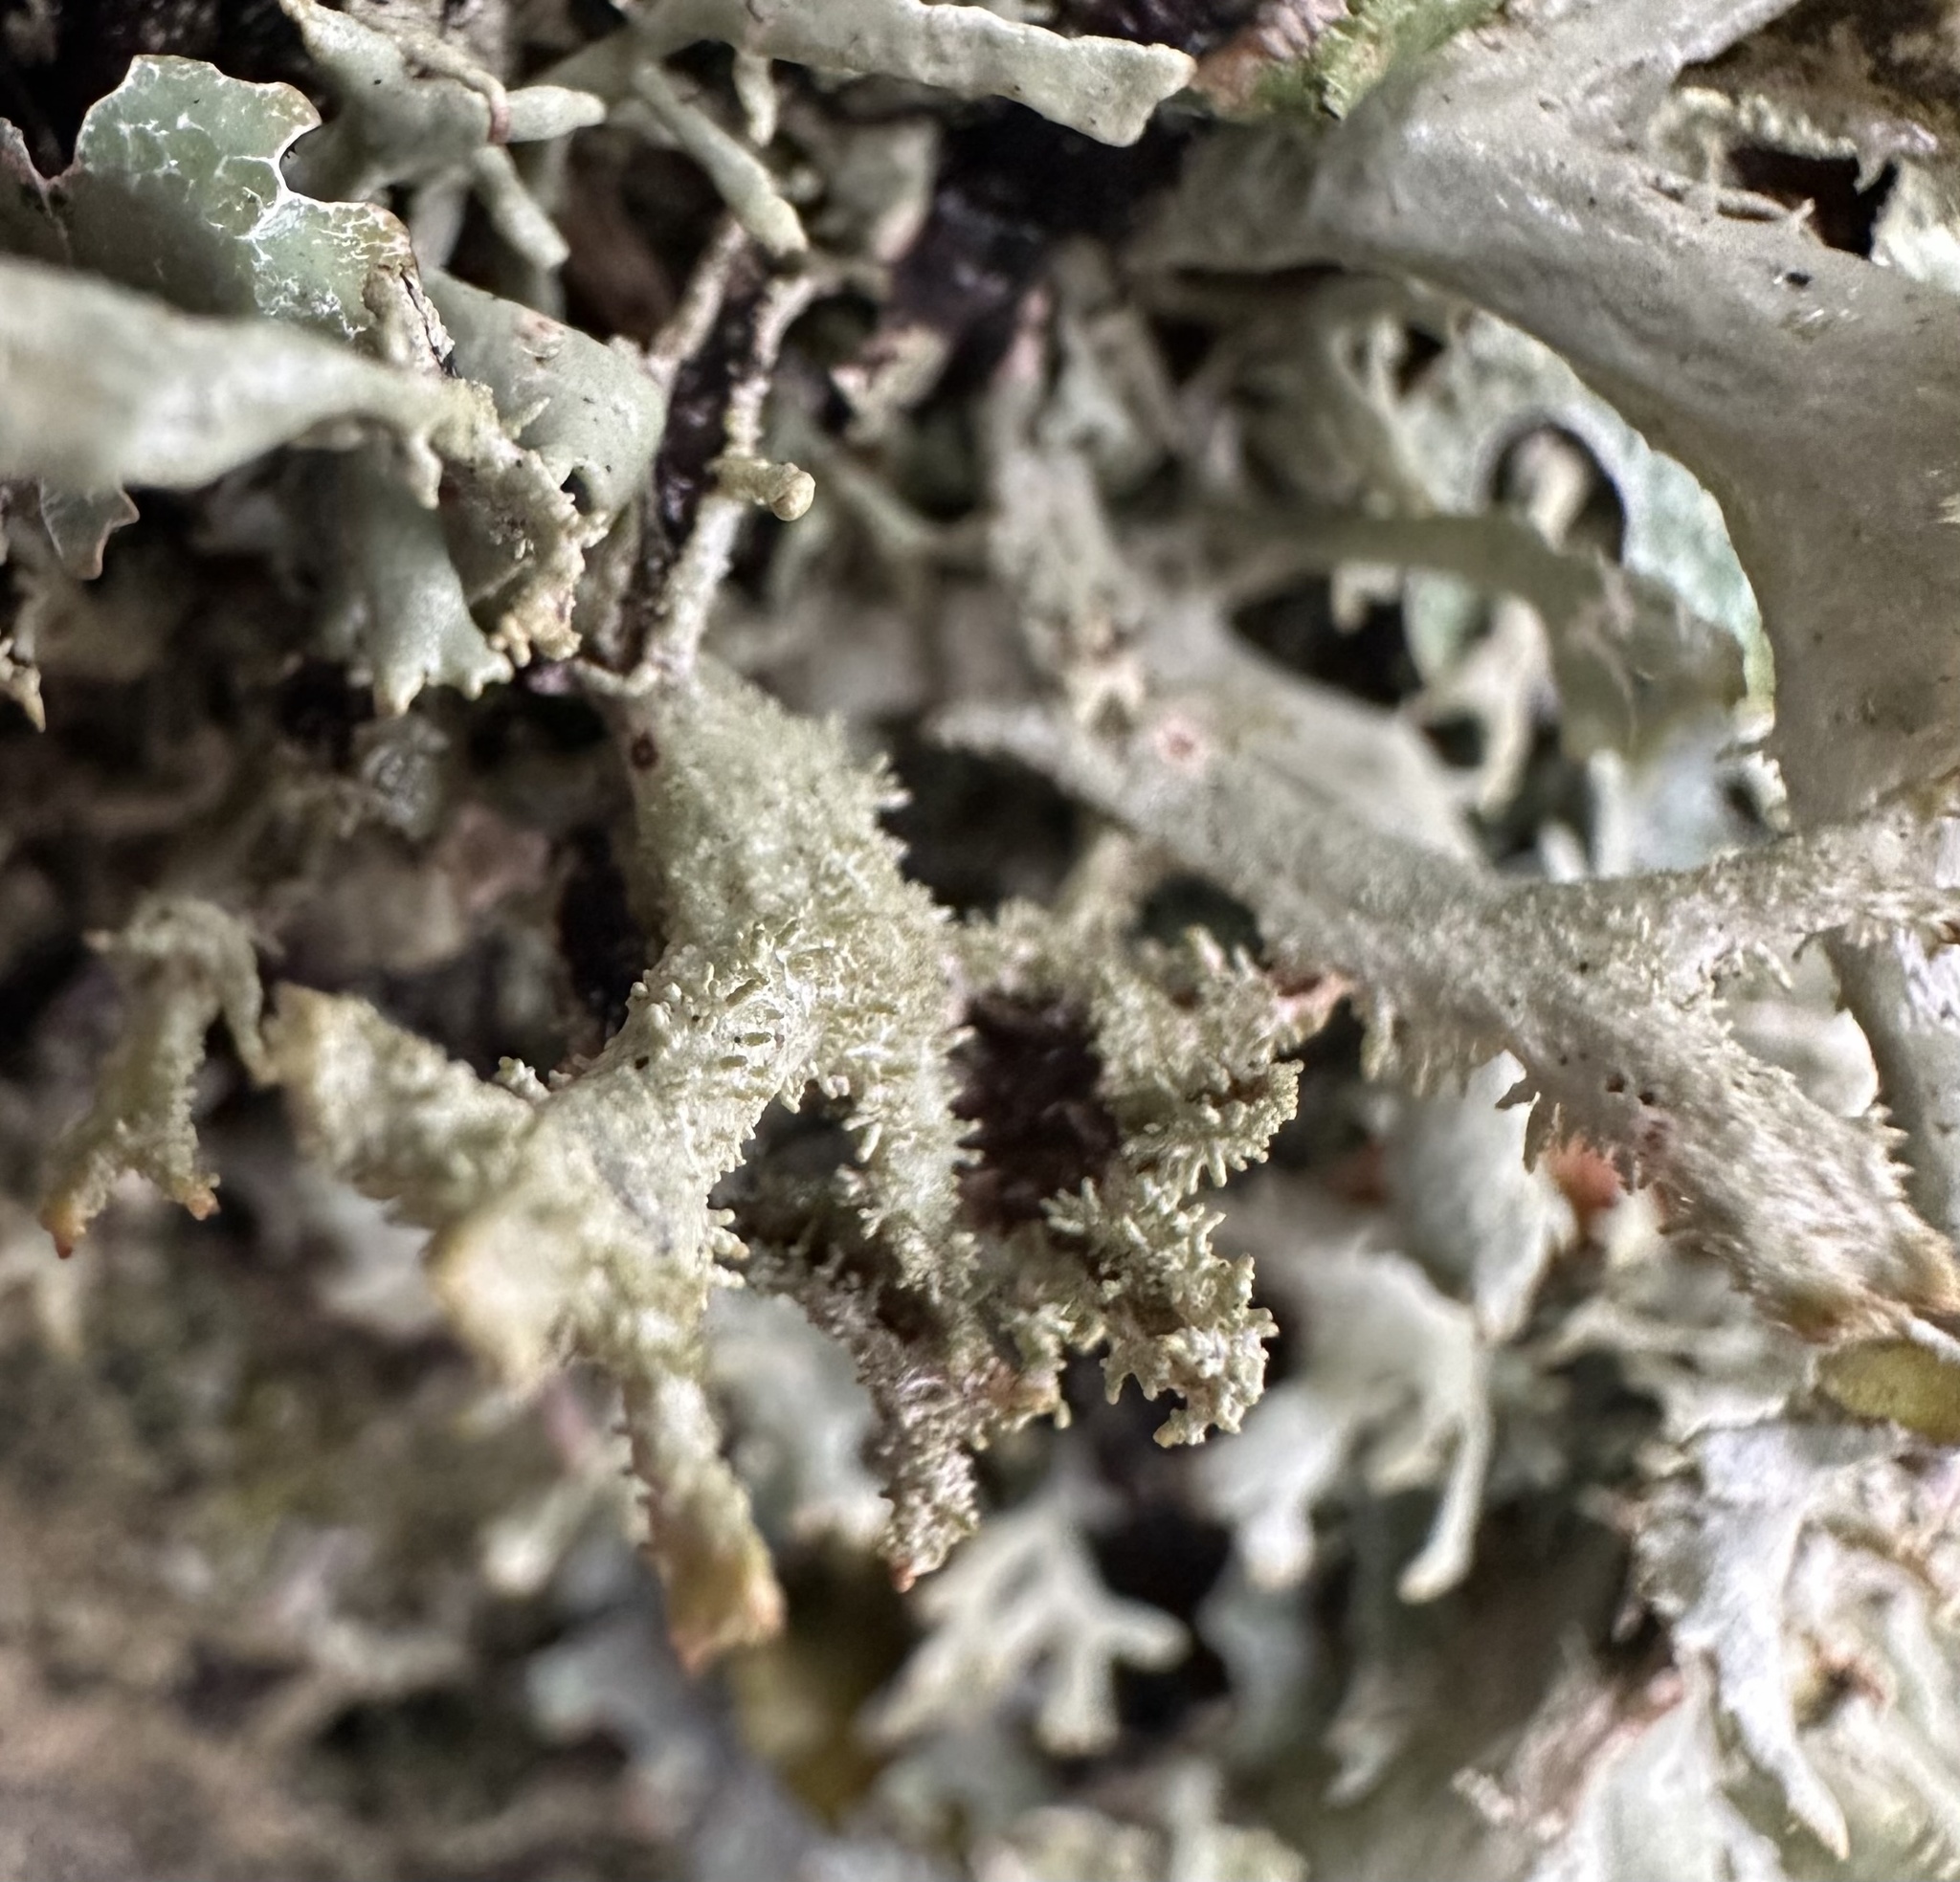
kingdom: Fungi
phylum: Ascomycota
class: Lecanoromycetes
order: Lecanorales
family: Parmeliaceae
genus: Pseudevernia
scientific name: Pseudevernia furfuracea
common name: Tree moss
